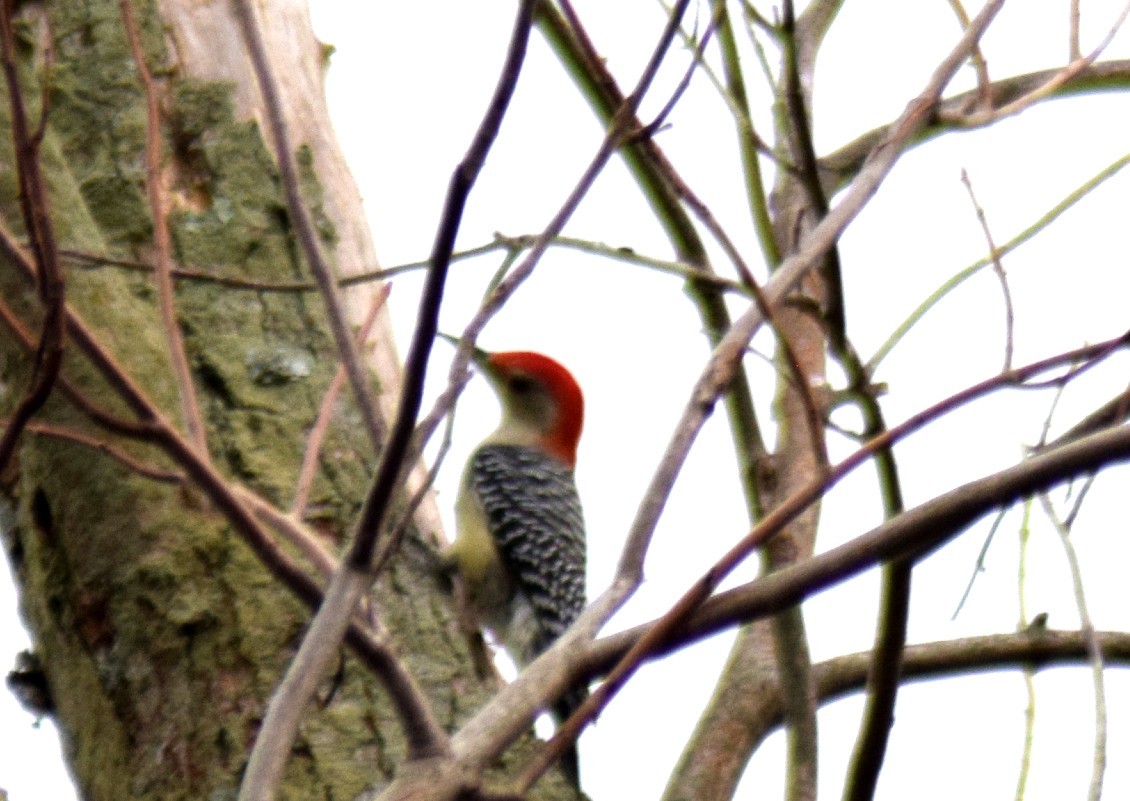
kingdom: Animalia
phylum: Chordata
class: Aves
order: Piciformes
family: Picidae
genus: Melanerpes
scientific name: Melanerpes carolinus
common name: Red-bellied woodpecker
